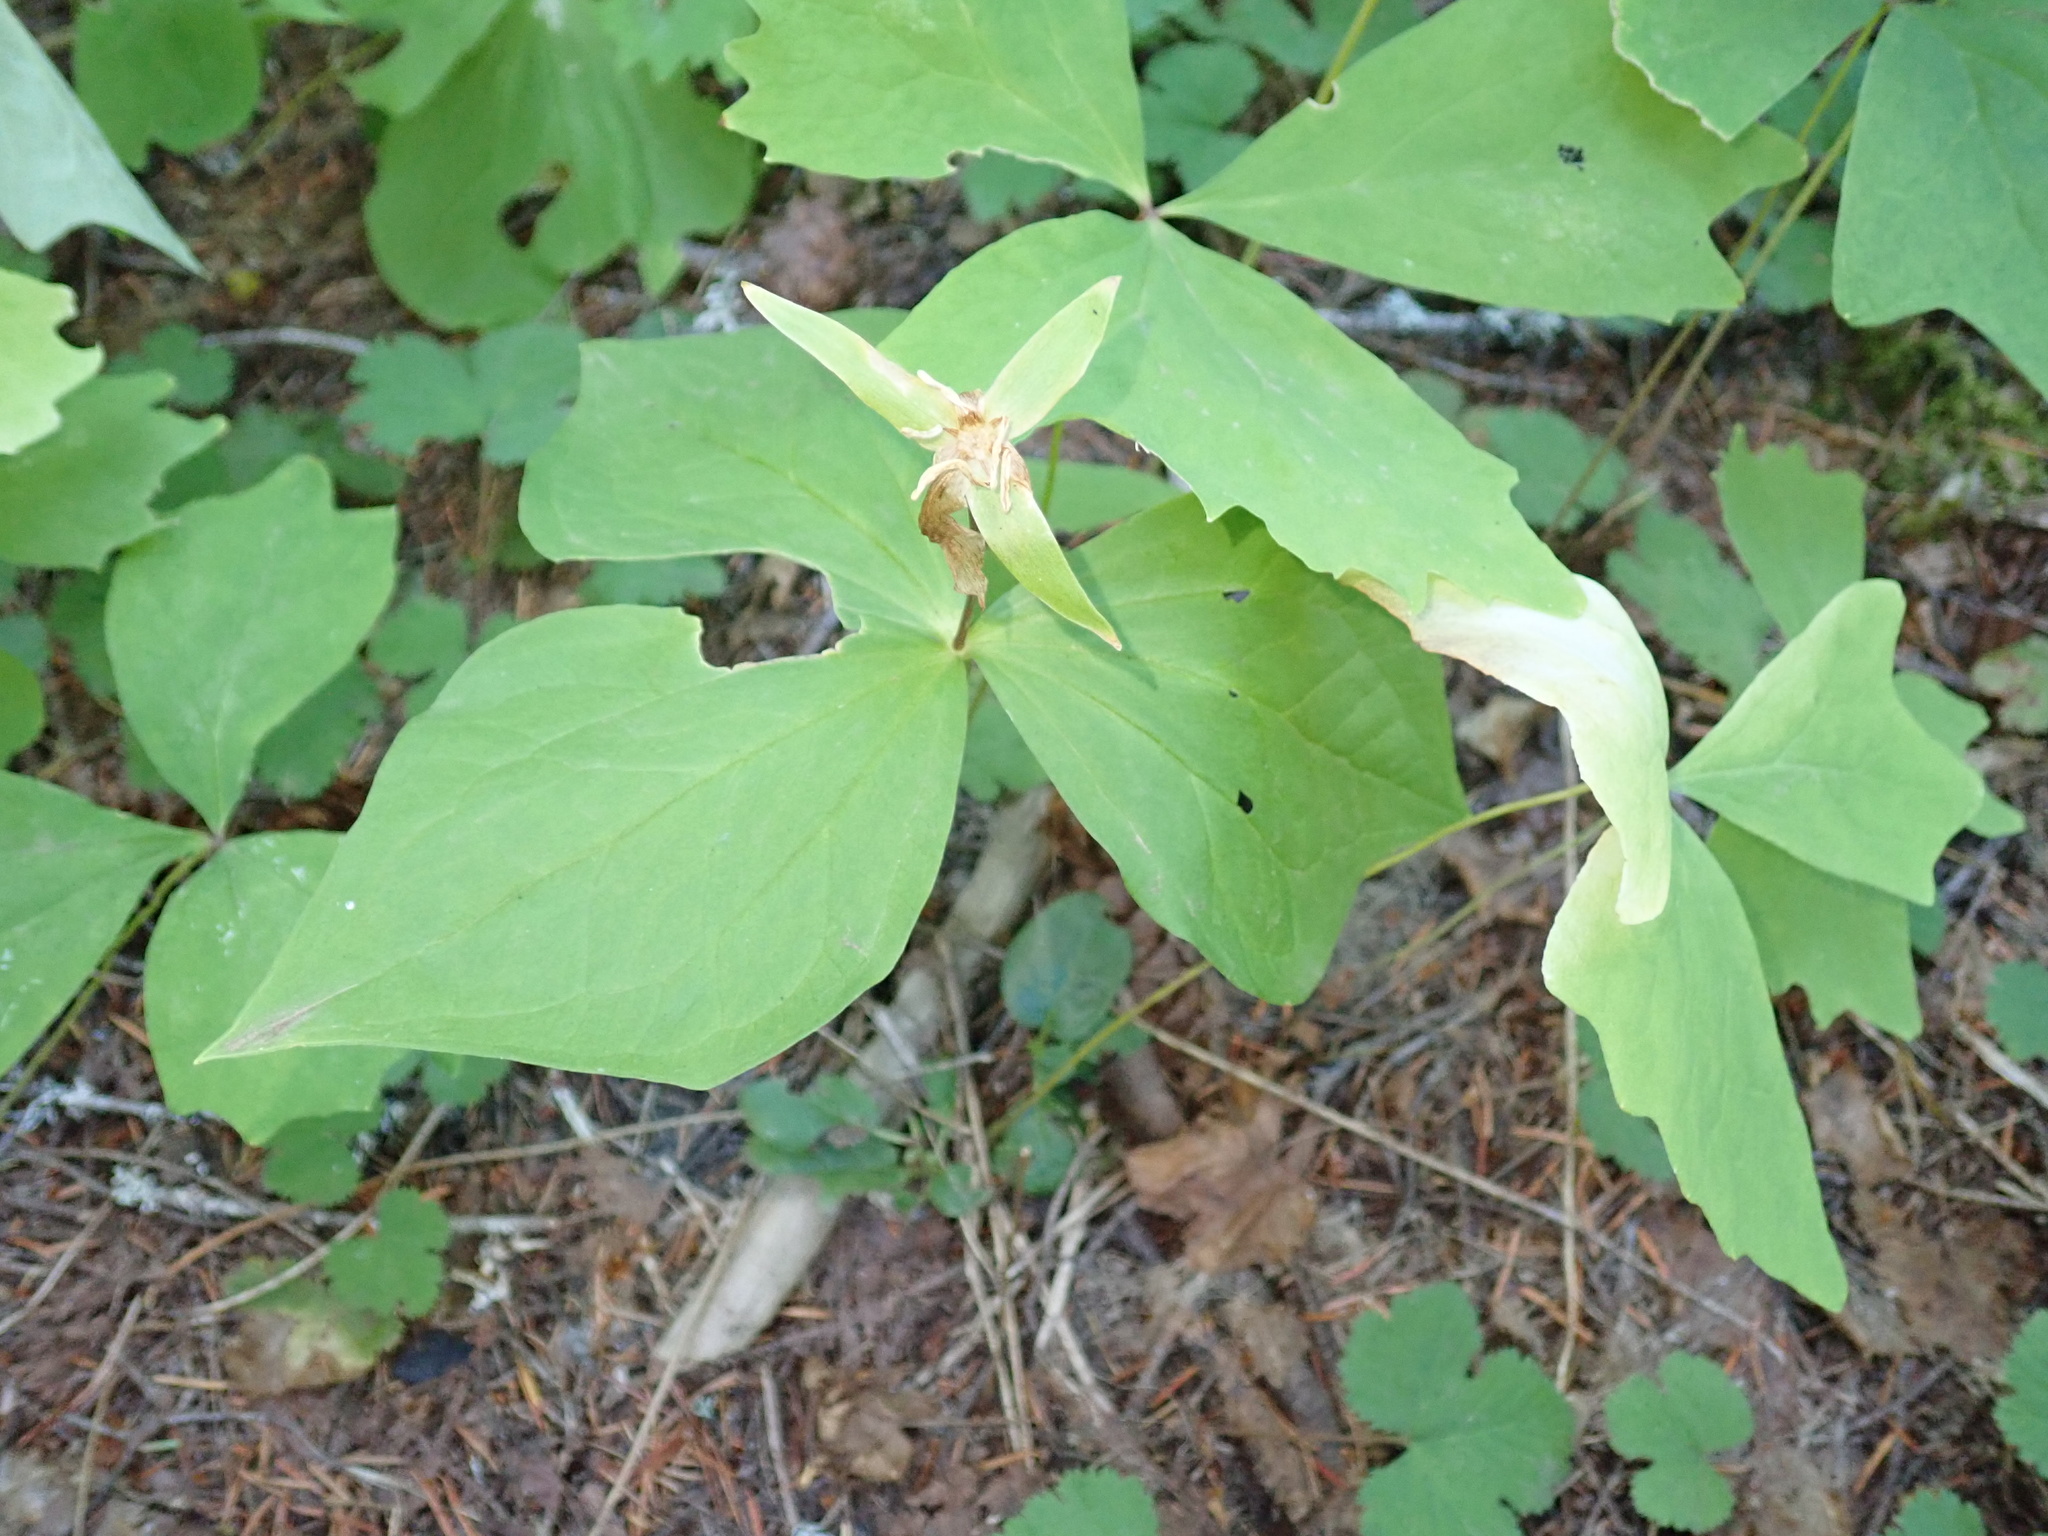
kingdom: Plantae
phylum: Tracheophyta
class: Liliopsida
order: Liliales
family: Melanthiaceae
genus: Trillium
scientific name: Trillium ovatum
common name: Pacific trillium
